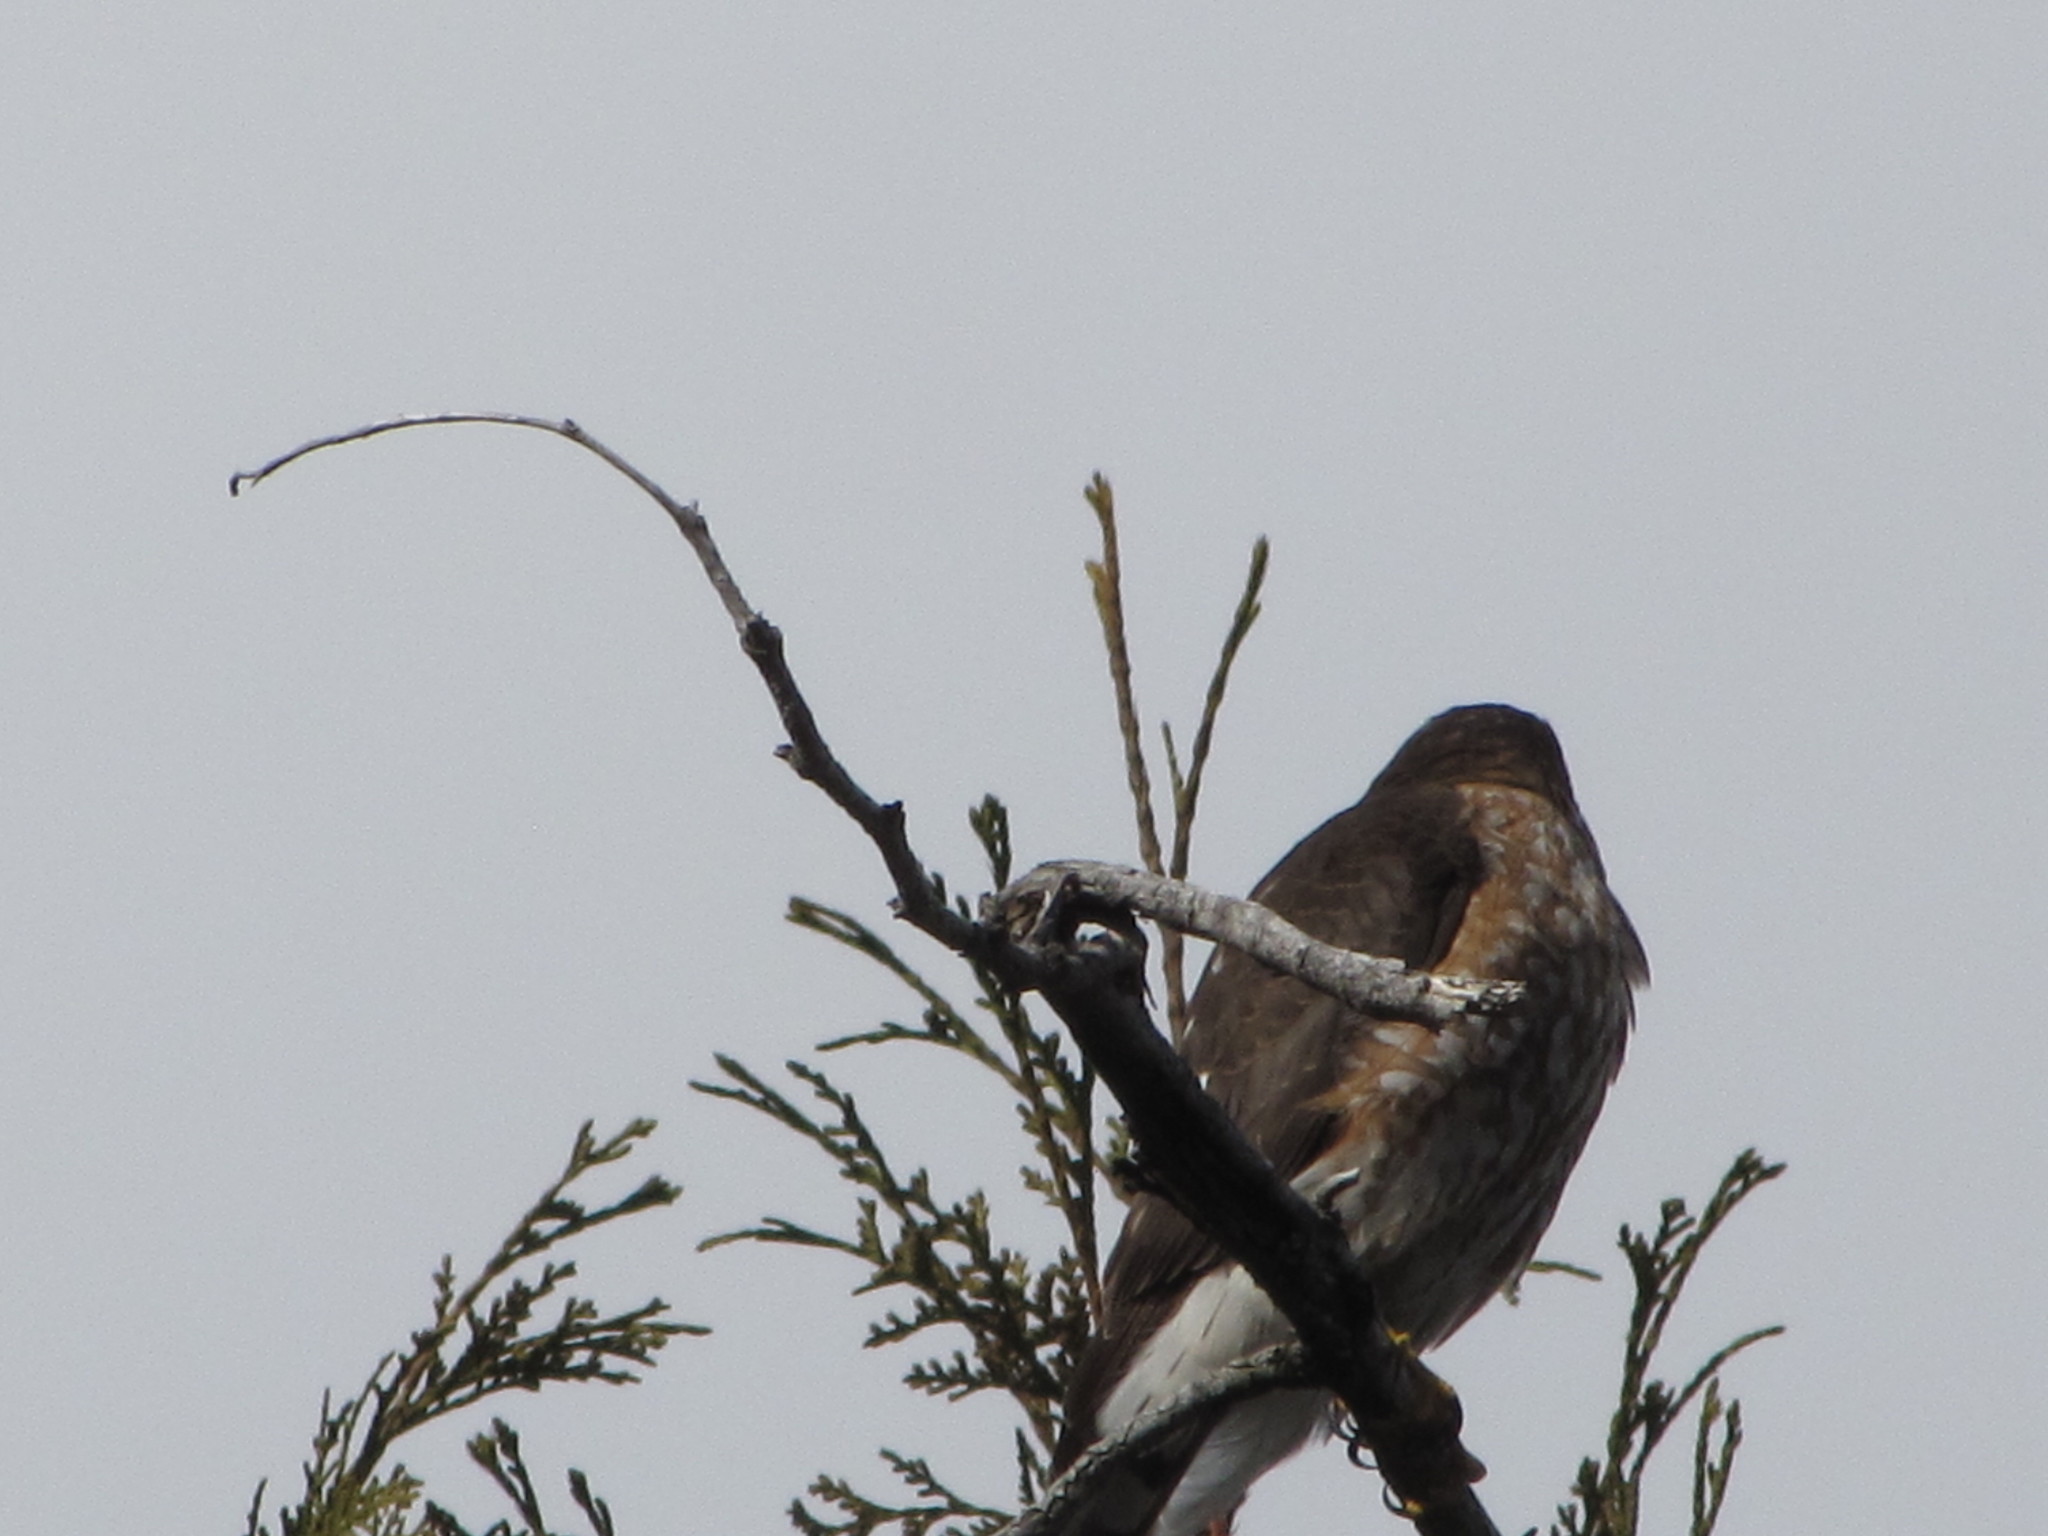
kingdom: Animalia
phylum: Chordata
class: Aves
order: Accipitriformes
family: Accipitridae
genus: Accipiter
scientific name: Accipiter striatus
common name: Sharp-shinned hawk
